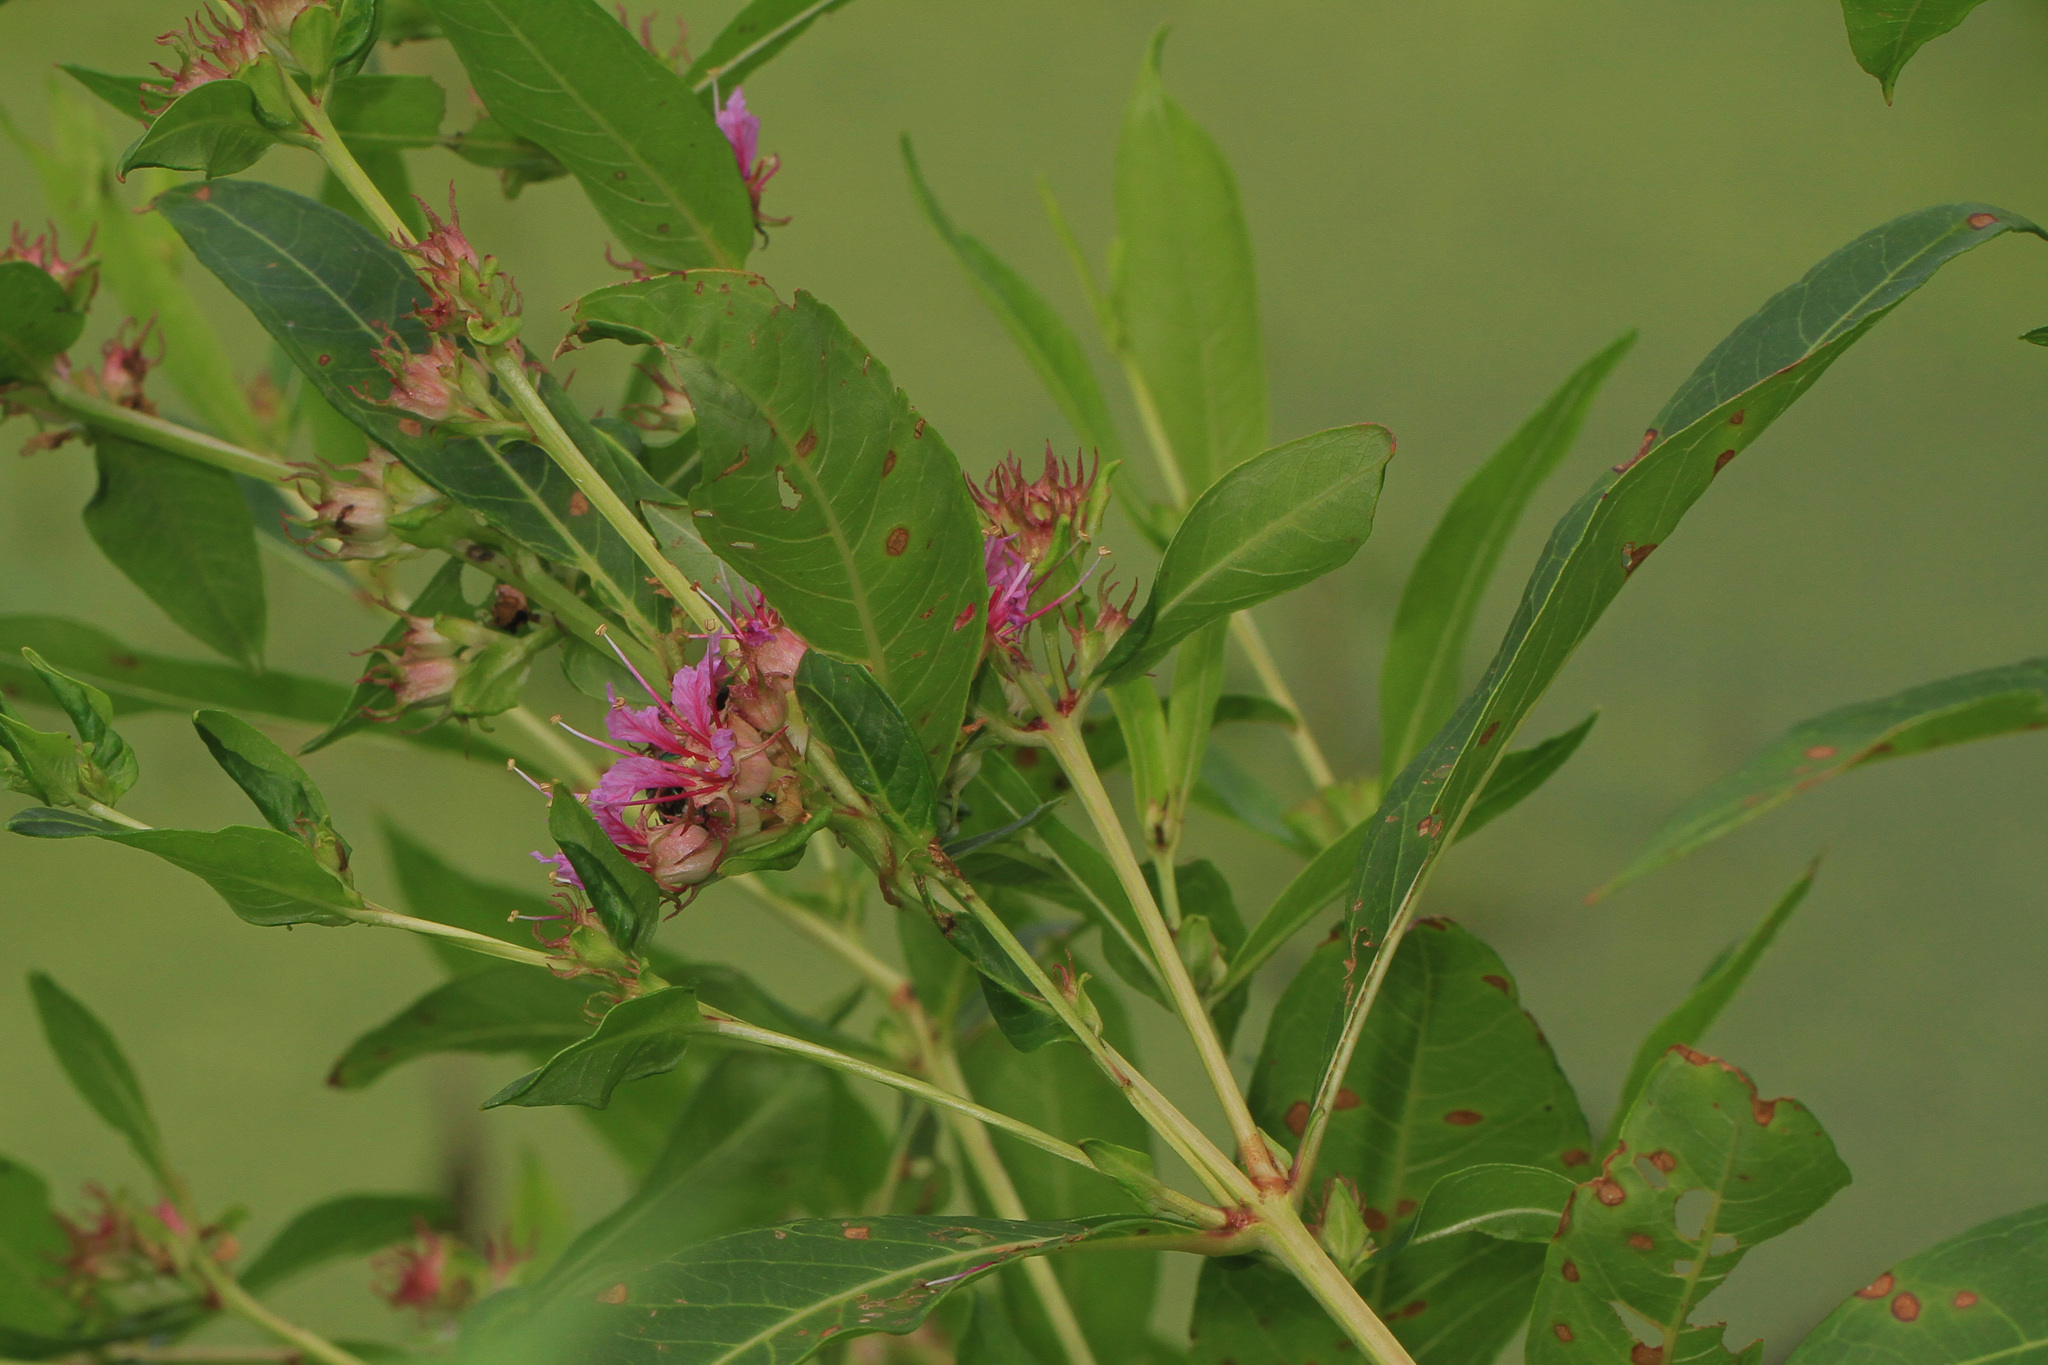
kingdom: Plantae
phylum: Tracheophyta
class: Magnoliopsida
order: Myrtales
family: Lythraceae
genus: Decodon
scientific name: Decodon verticillatus
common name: Hairy swamp loosestrife
